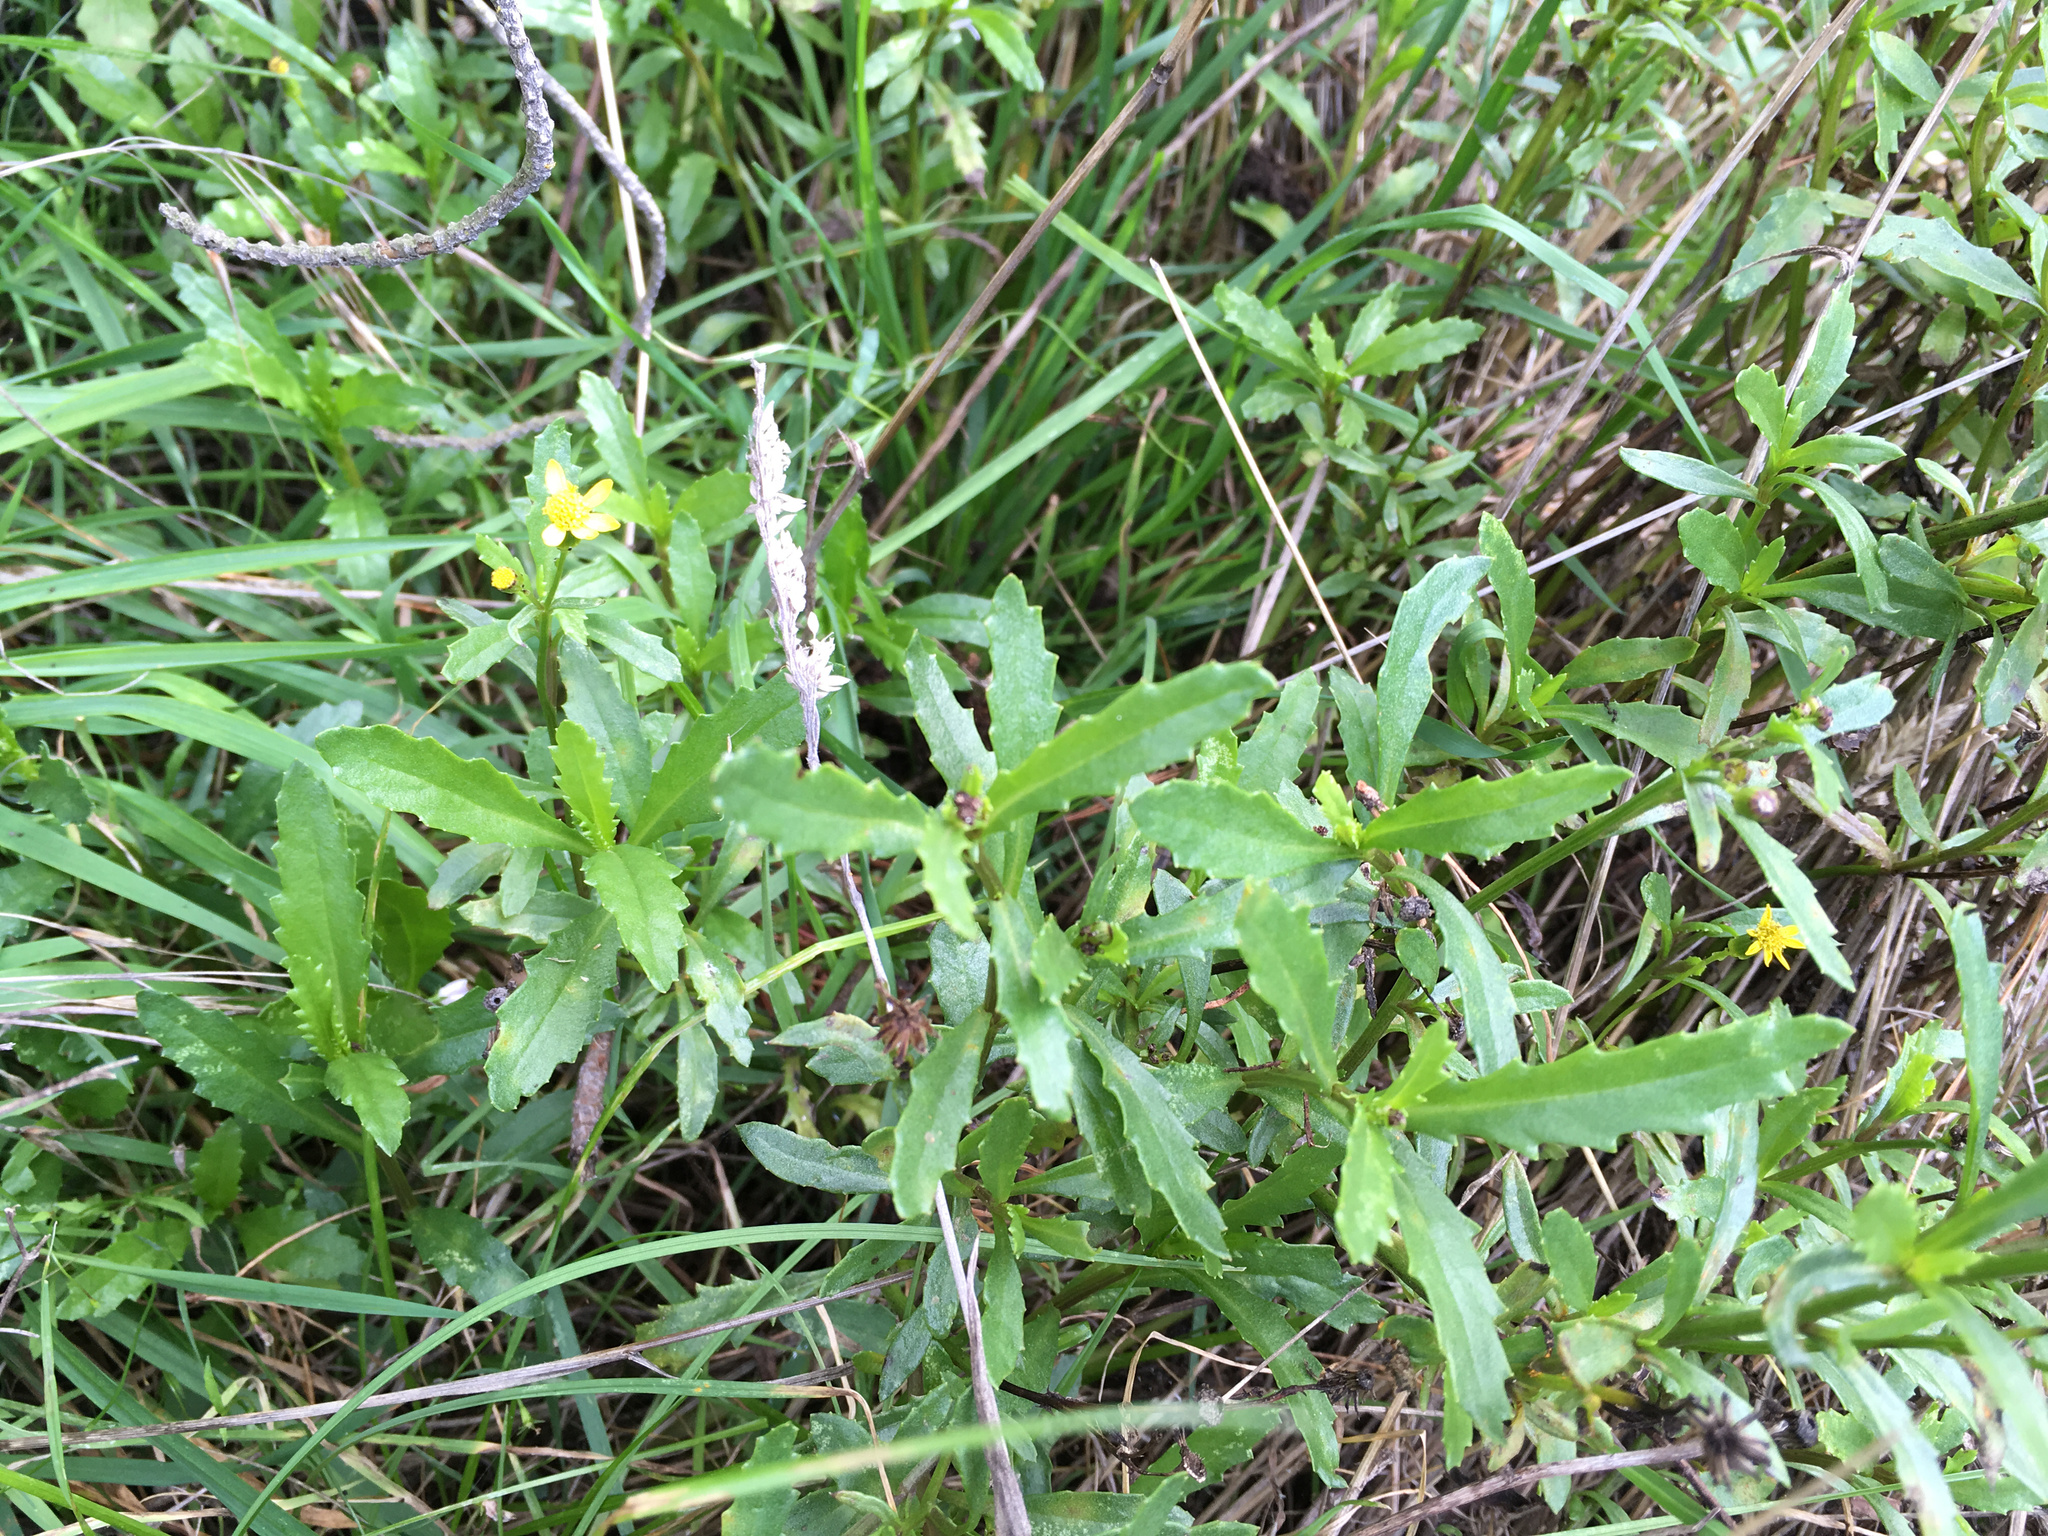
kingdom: Plantae
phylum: Tracheophyta
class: Magnoliopsida
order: Asterales
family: Asteraceae
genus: Senecio
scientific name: Senecio matatini
